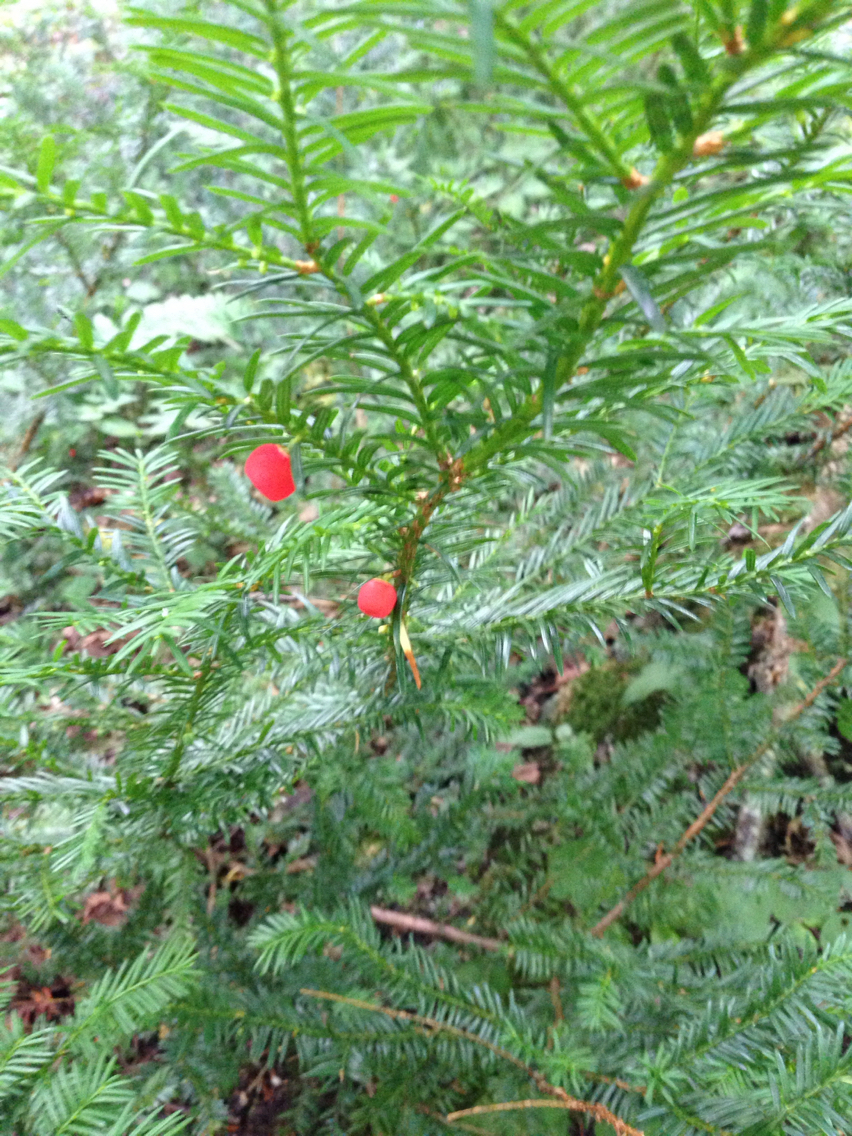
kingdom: Plantae
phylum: Tracheophyta
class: Pinopsida
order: Pinales
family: Taxaceae
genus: Taxus
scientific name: Taxus canadensis
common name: American yew
